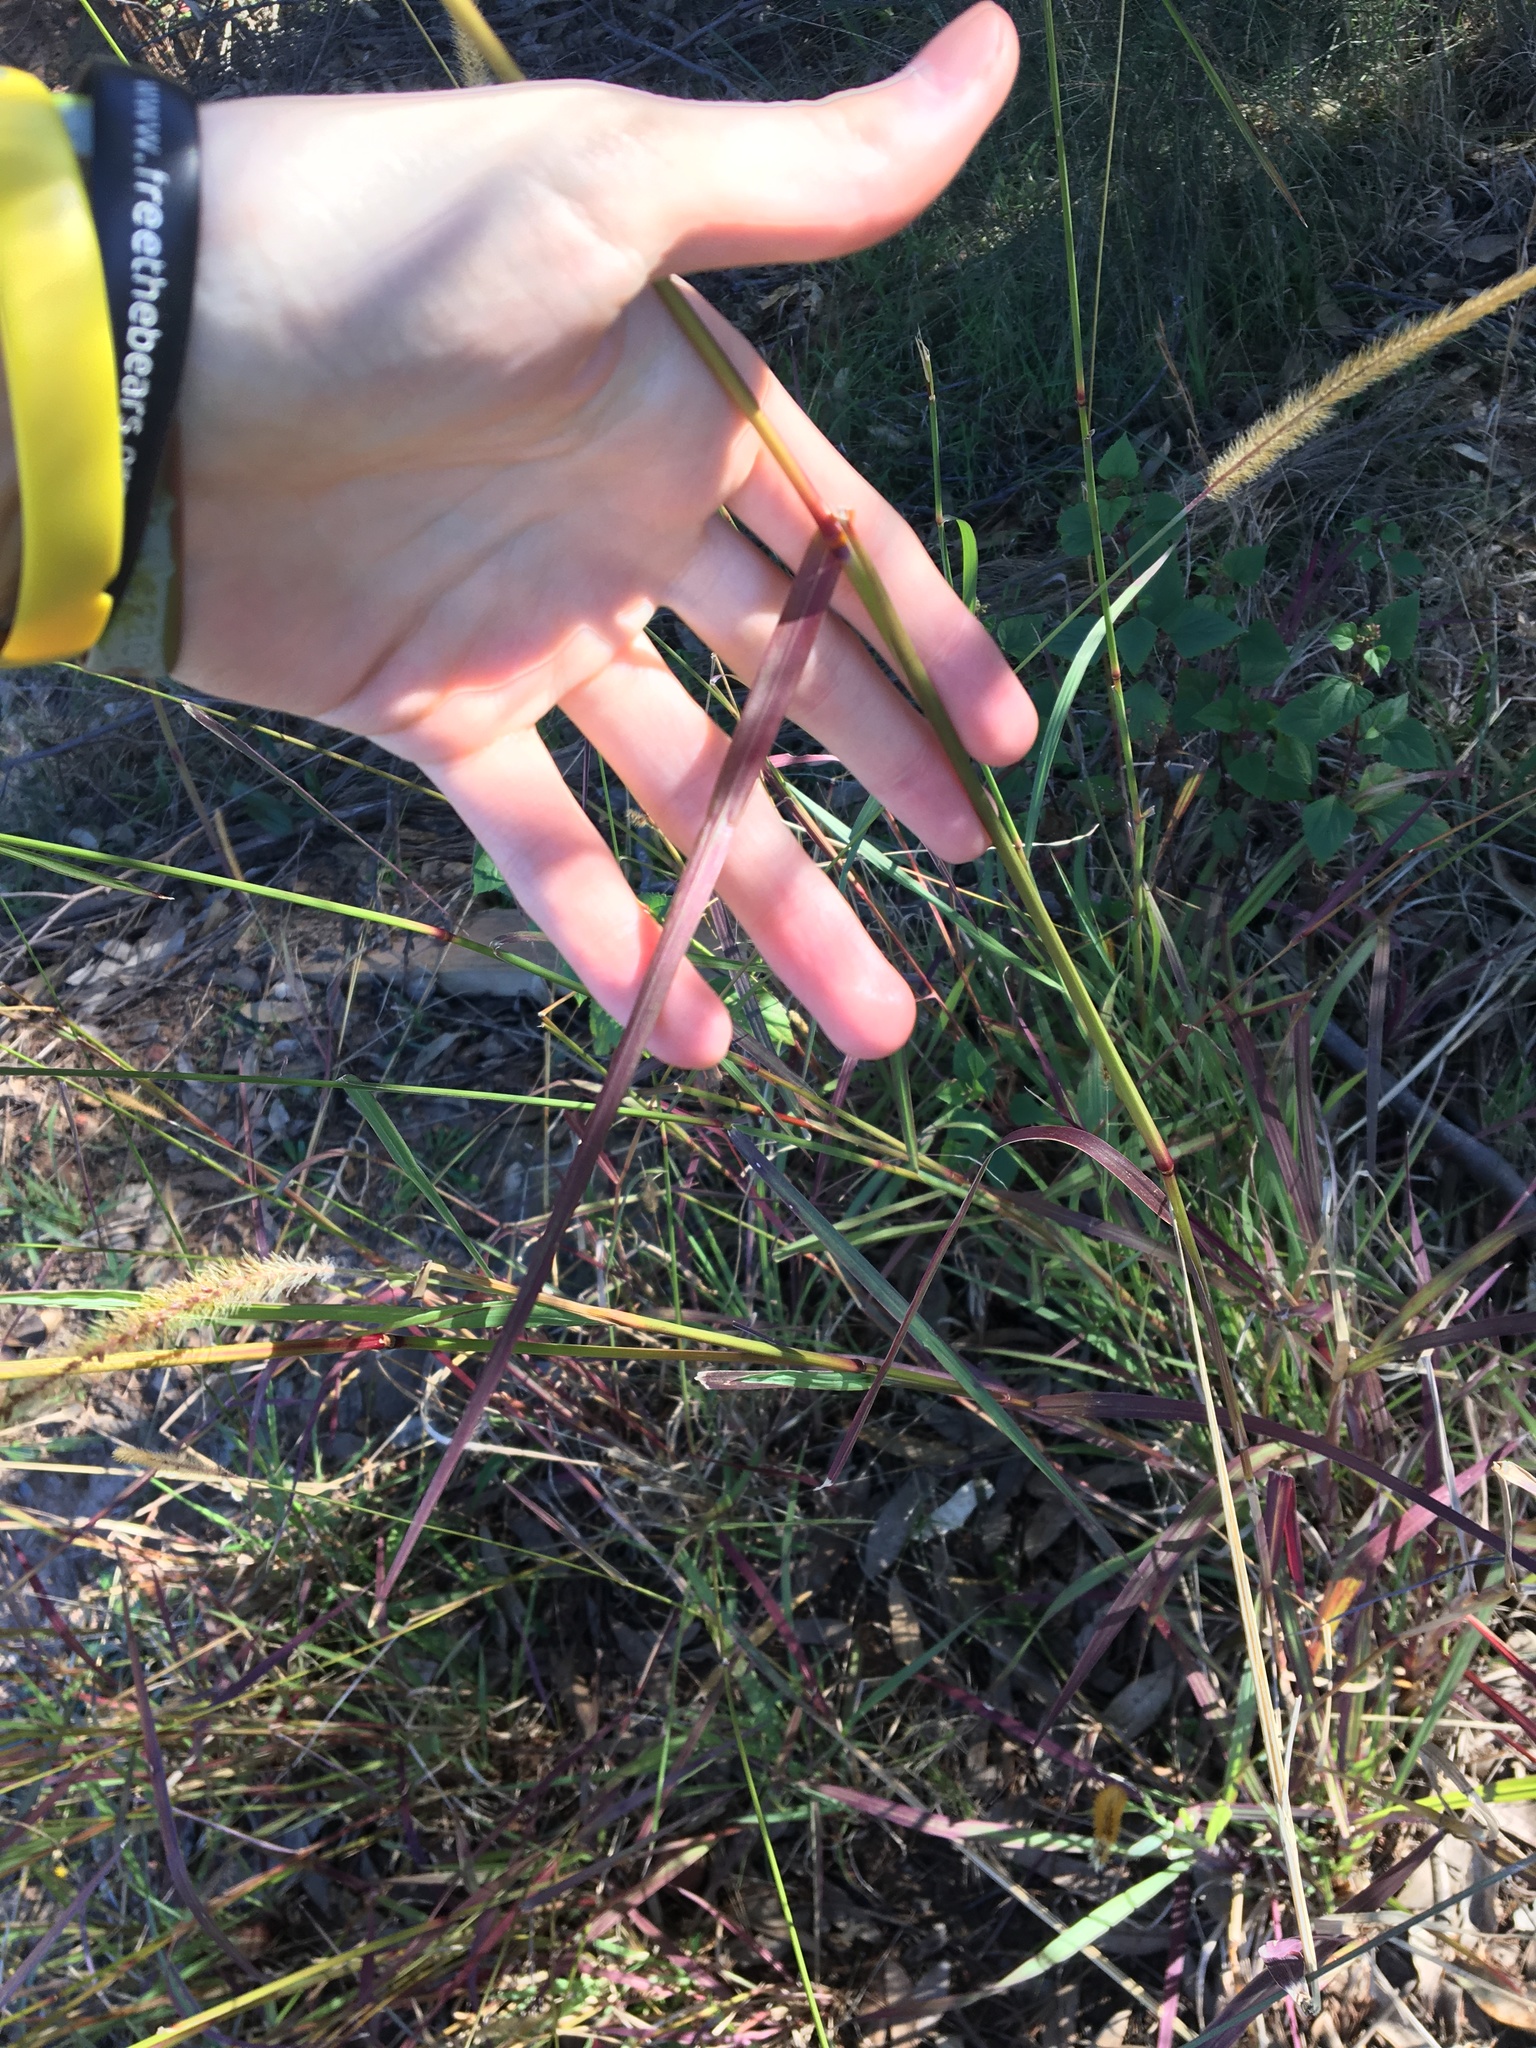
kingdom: Plantae
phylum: Tracheophyta
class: Liliopsida
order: Poales
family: Poaceae
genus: Setaria
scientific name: Setaria sphacelata
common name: African bristlegrass
